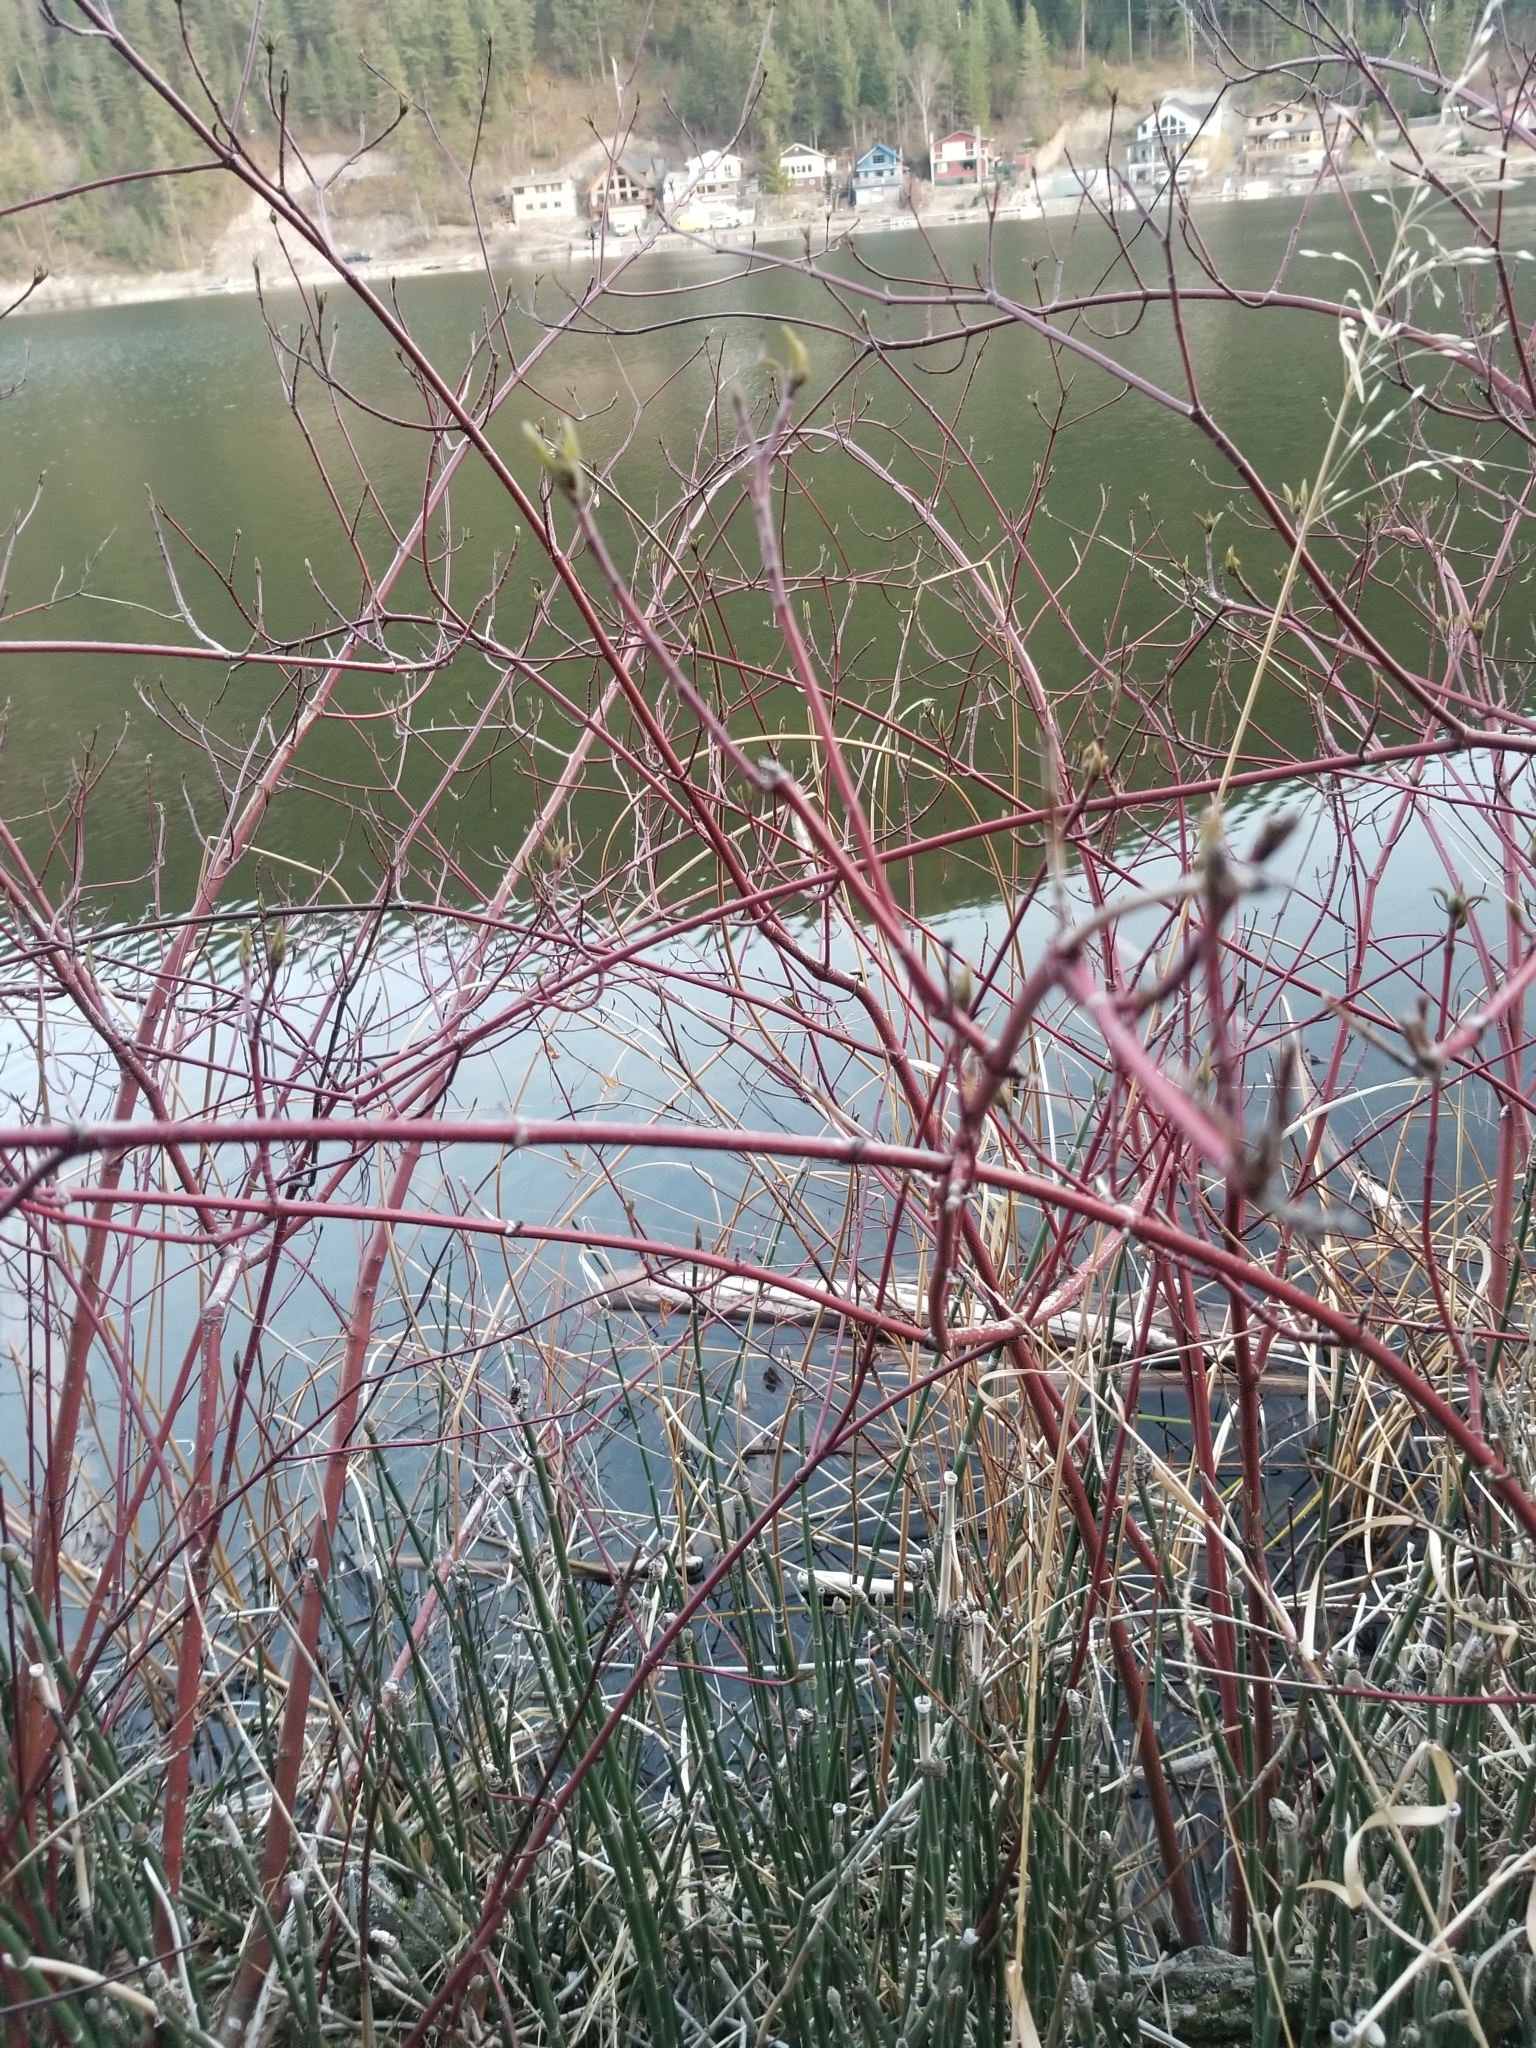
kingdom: Plantae
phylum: Tracheophyta
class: Magnoliopsida
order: Cornales
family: Cornaceae
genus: Cornus
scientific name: Cornus sericea
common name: Red-osier dogwood
